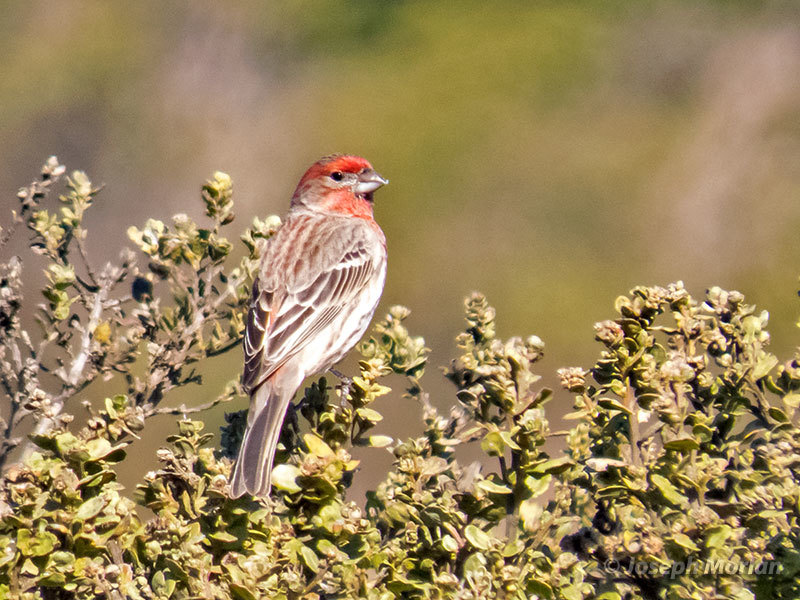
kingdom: Animalia
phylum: Chordata
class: Aves
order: Passeriformes
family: Fringillidae
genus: Haemorhous
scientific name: Haemorhous mexicanus
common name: House finch
